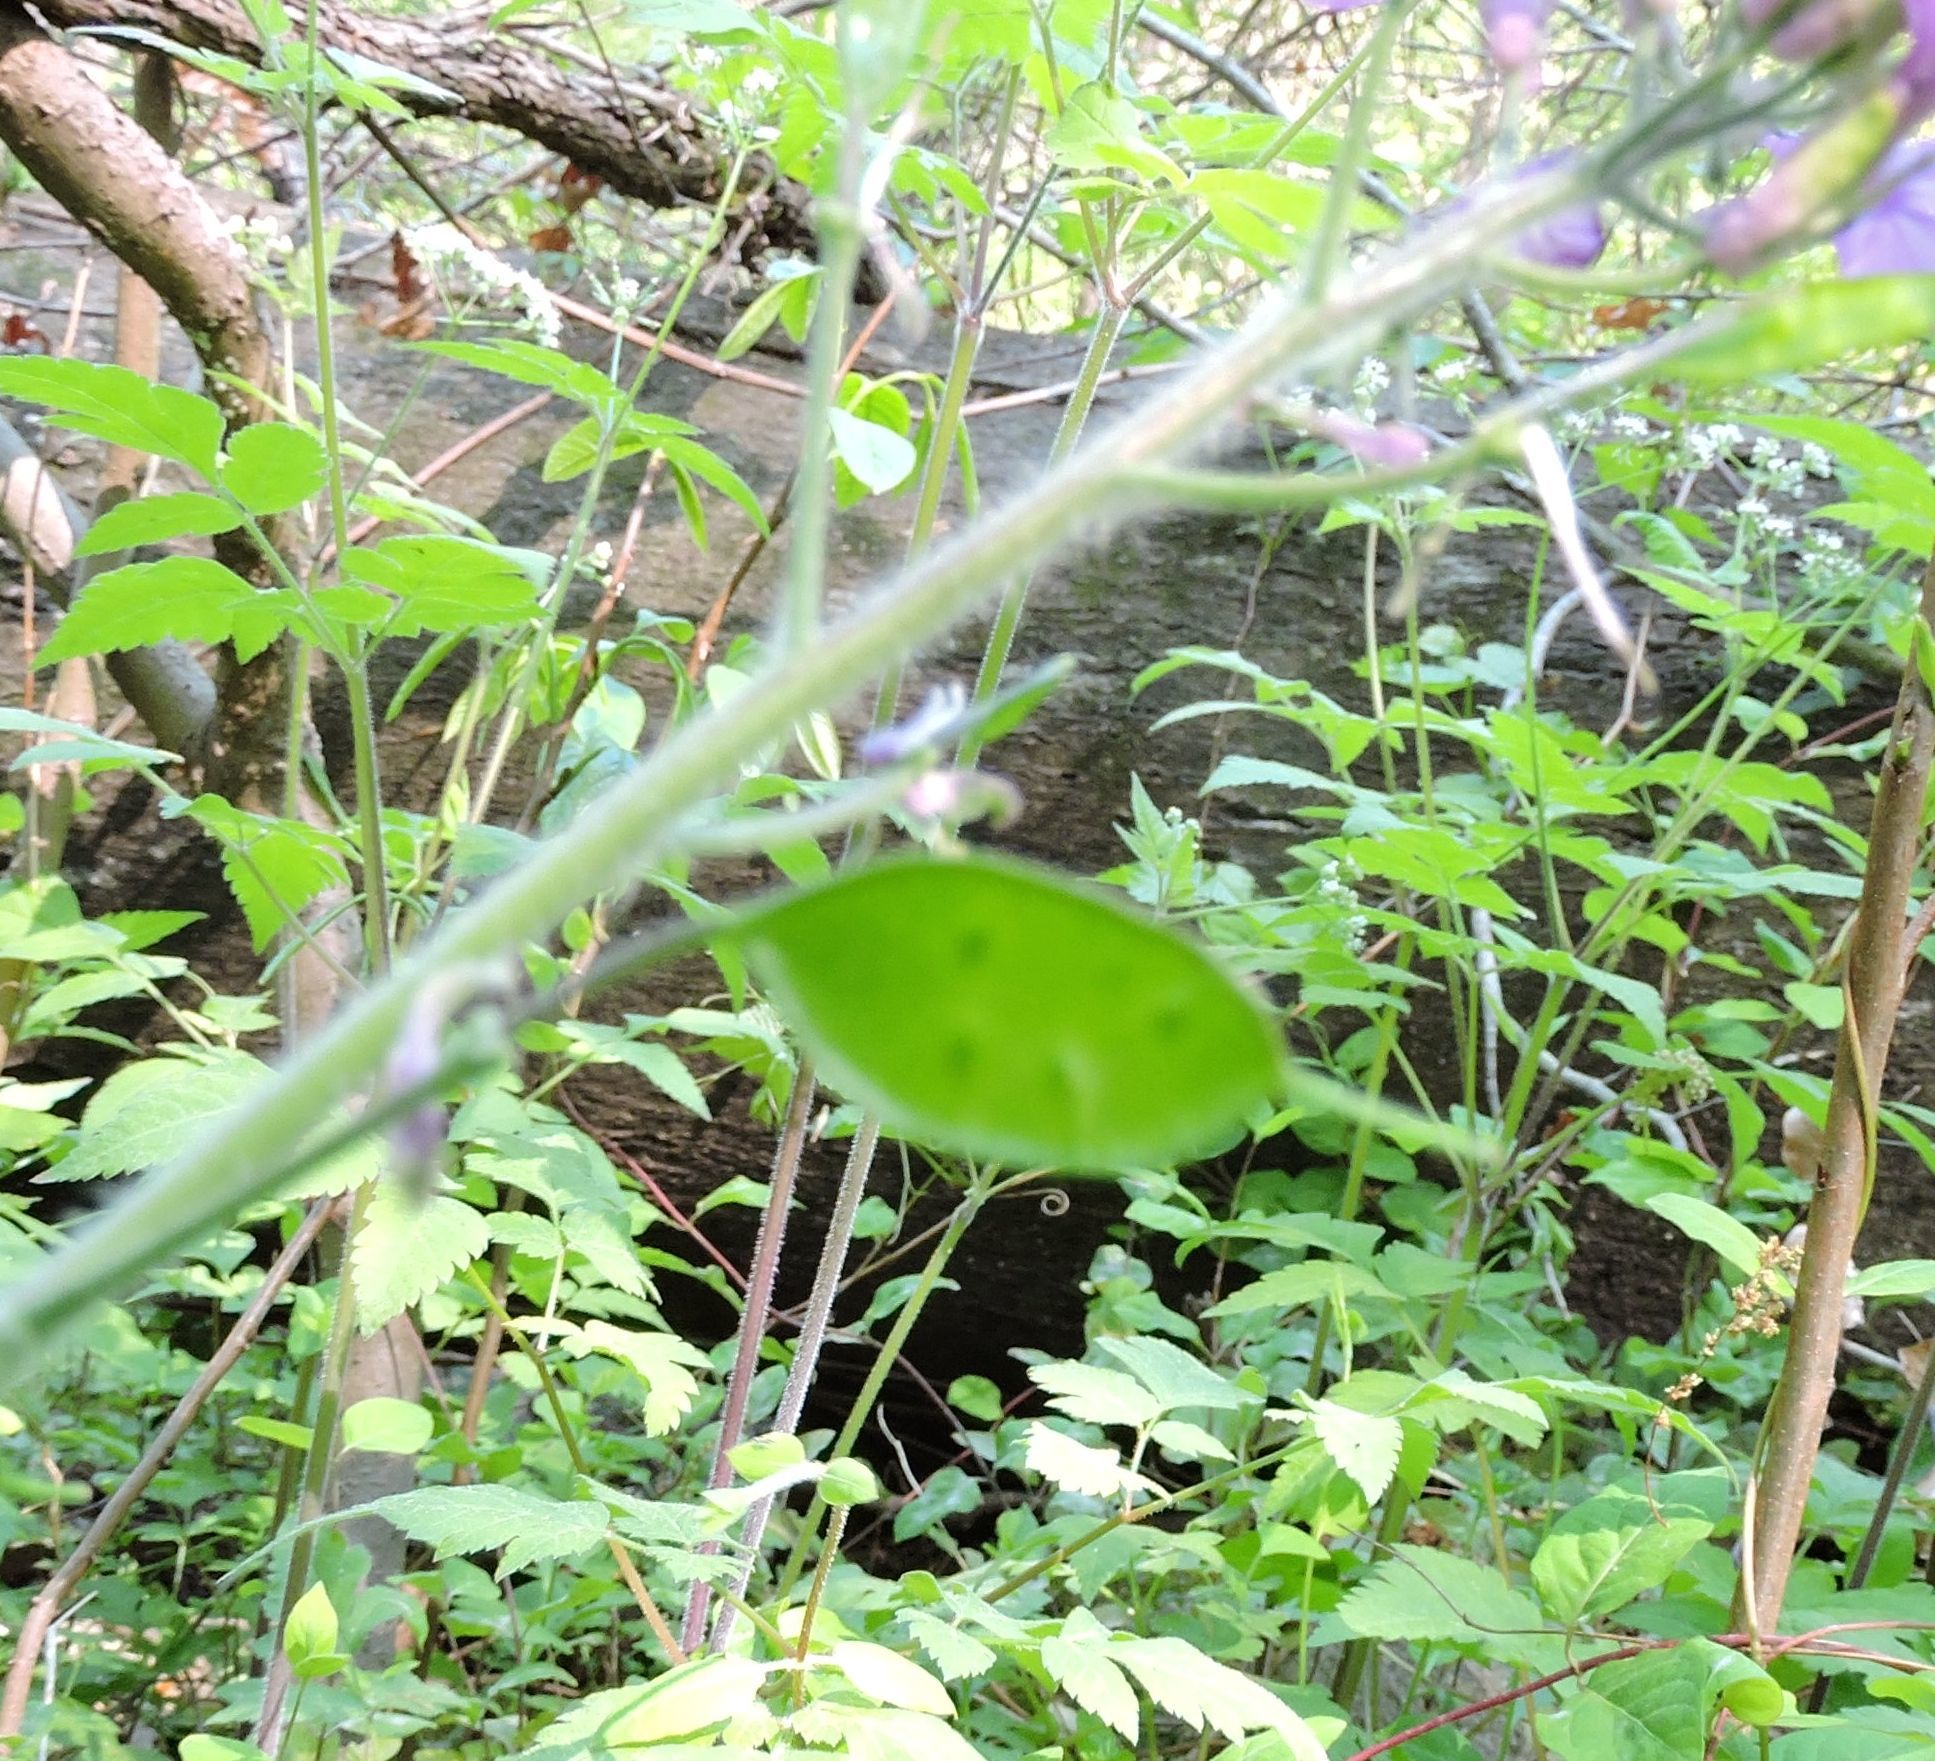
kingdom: Plantae
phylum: Tracheophyta
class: Magnoliopsida
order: Brassicales
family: Brassicaceae
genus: Lunaria
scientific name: Lunaria annua
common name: Honesty
